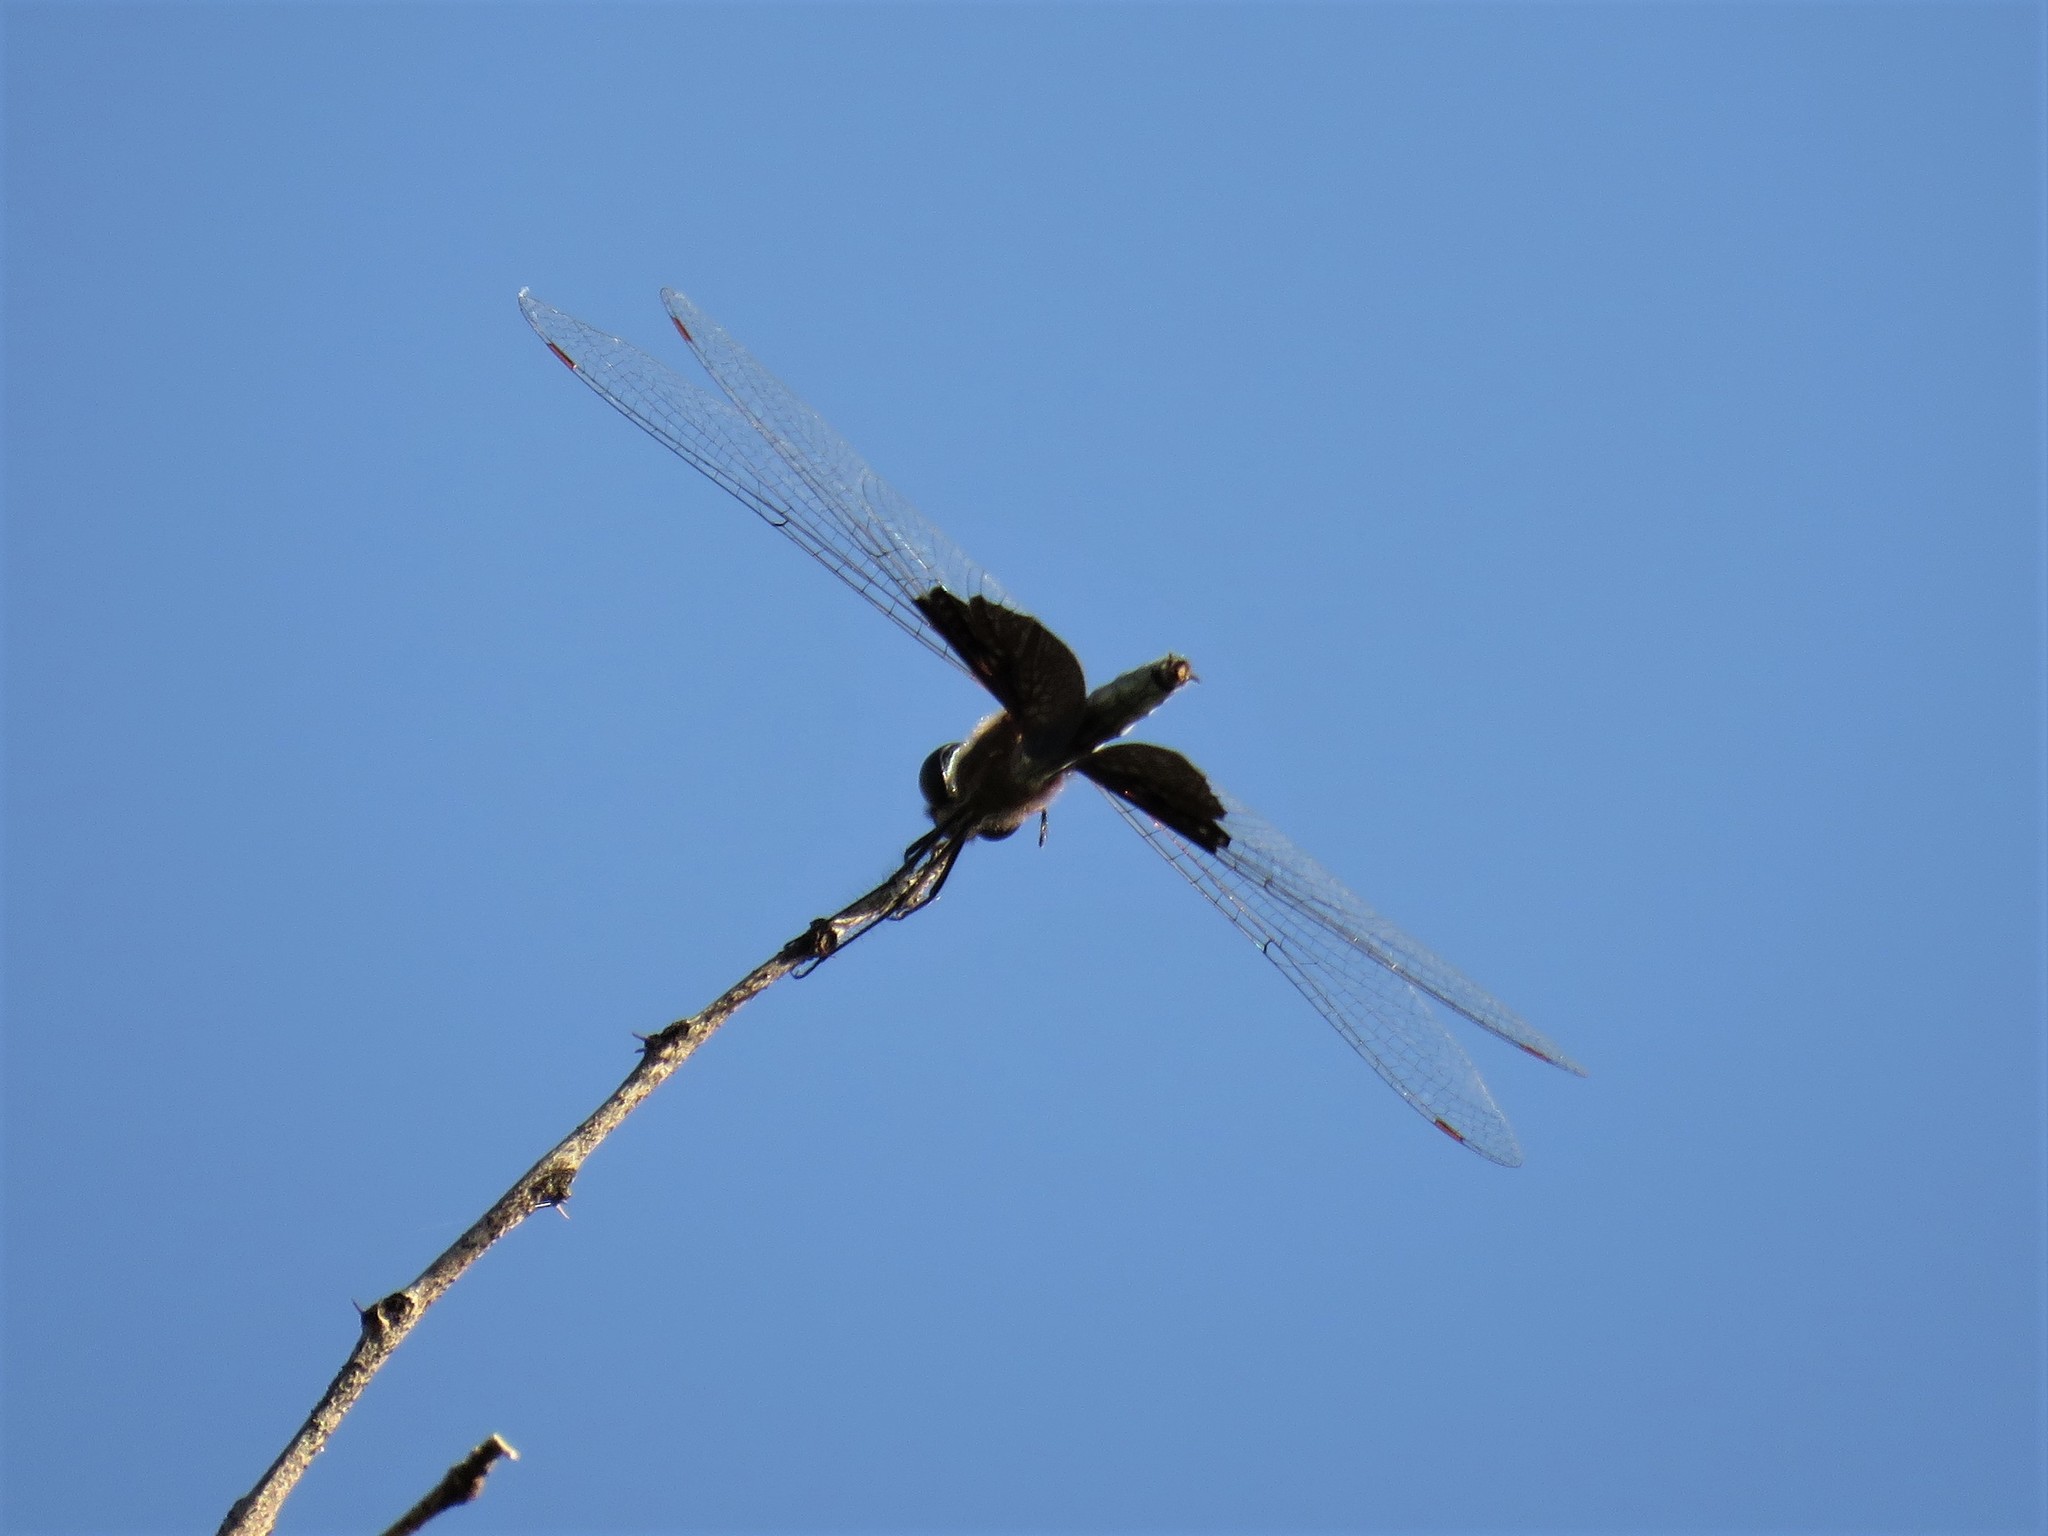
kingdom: Animalia
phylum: Arthropoda
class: Insecta
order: Odonata
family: Libellulidae
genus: Rhyothemis
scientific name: Rhyothemis semihyalina
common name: Phantom flutterer
